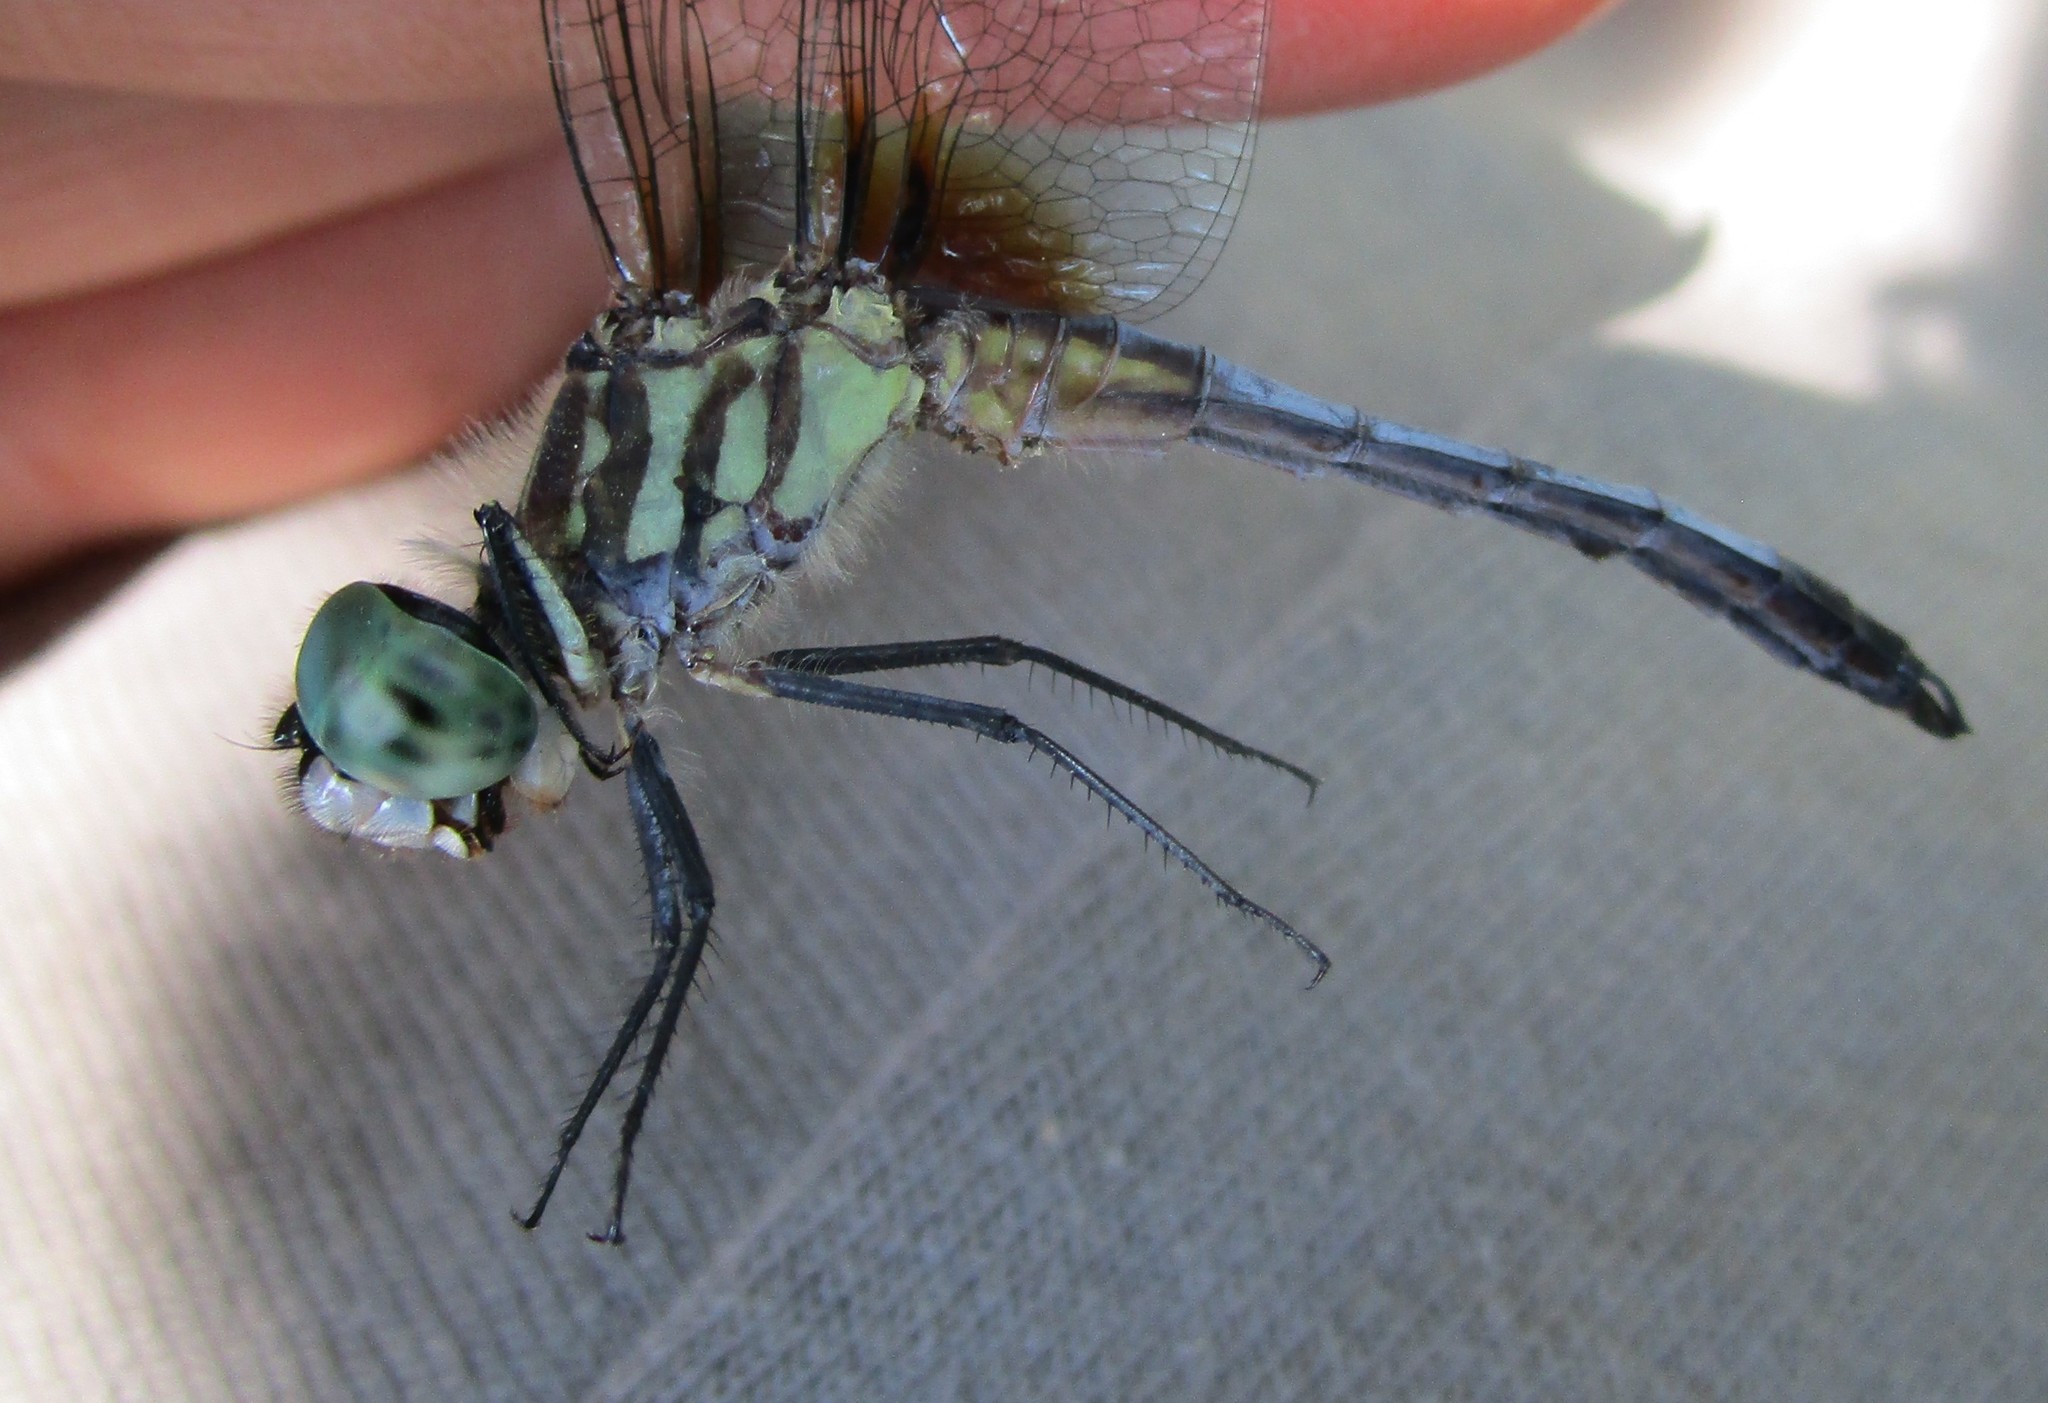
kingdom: Animalia
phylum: Arthropoda
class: Insecta
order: Odonata
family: Libellulidae
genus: Pachydiplax
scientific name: Pachydiplax longipennis
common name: Blue dasher
